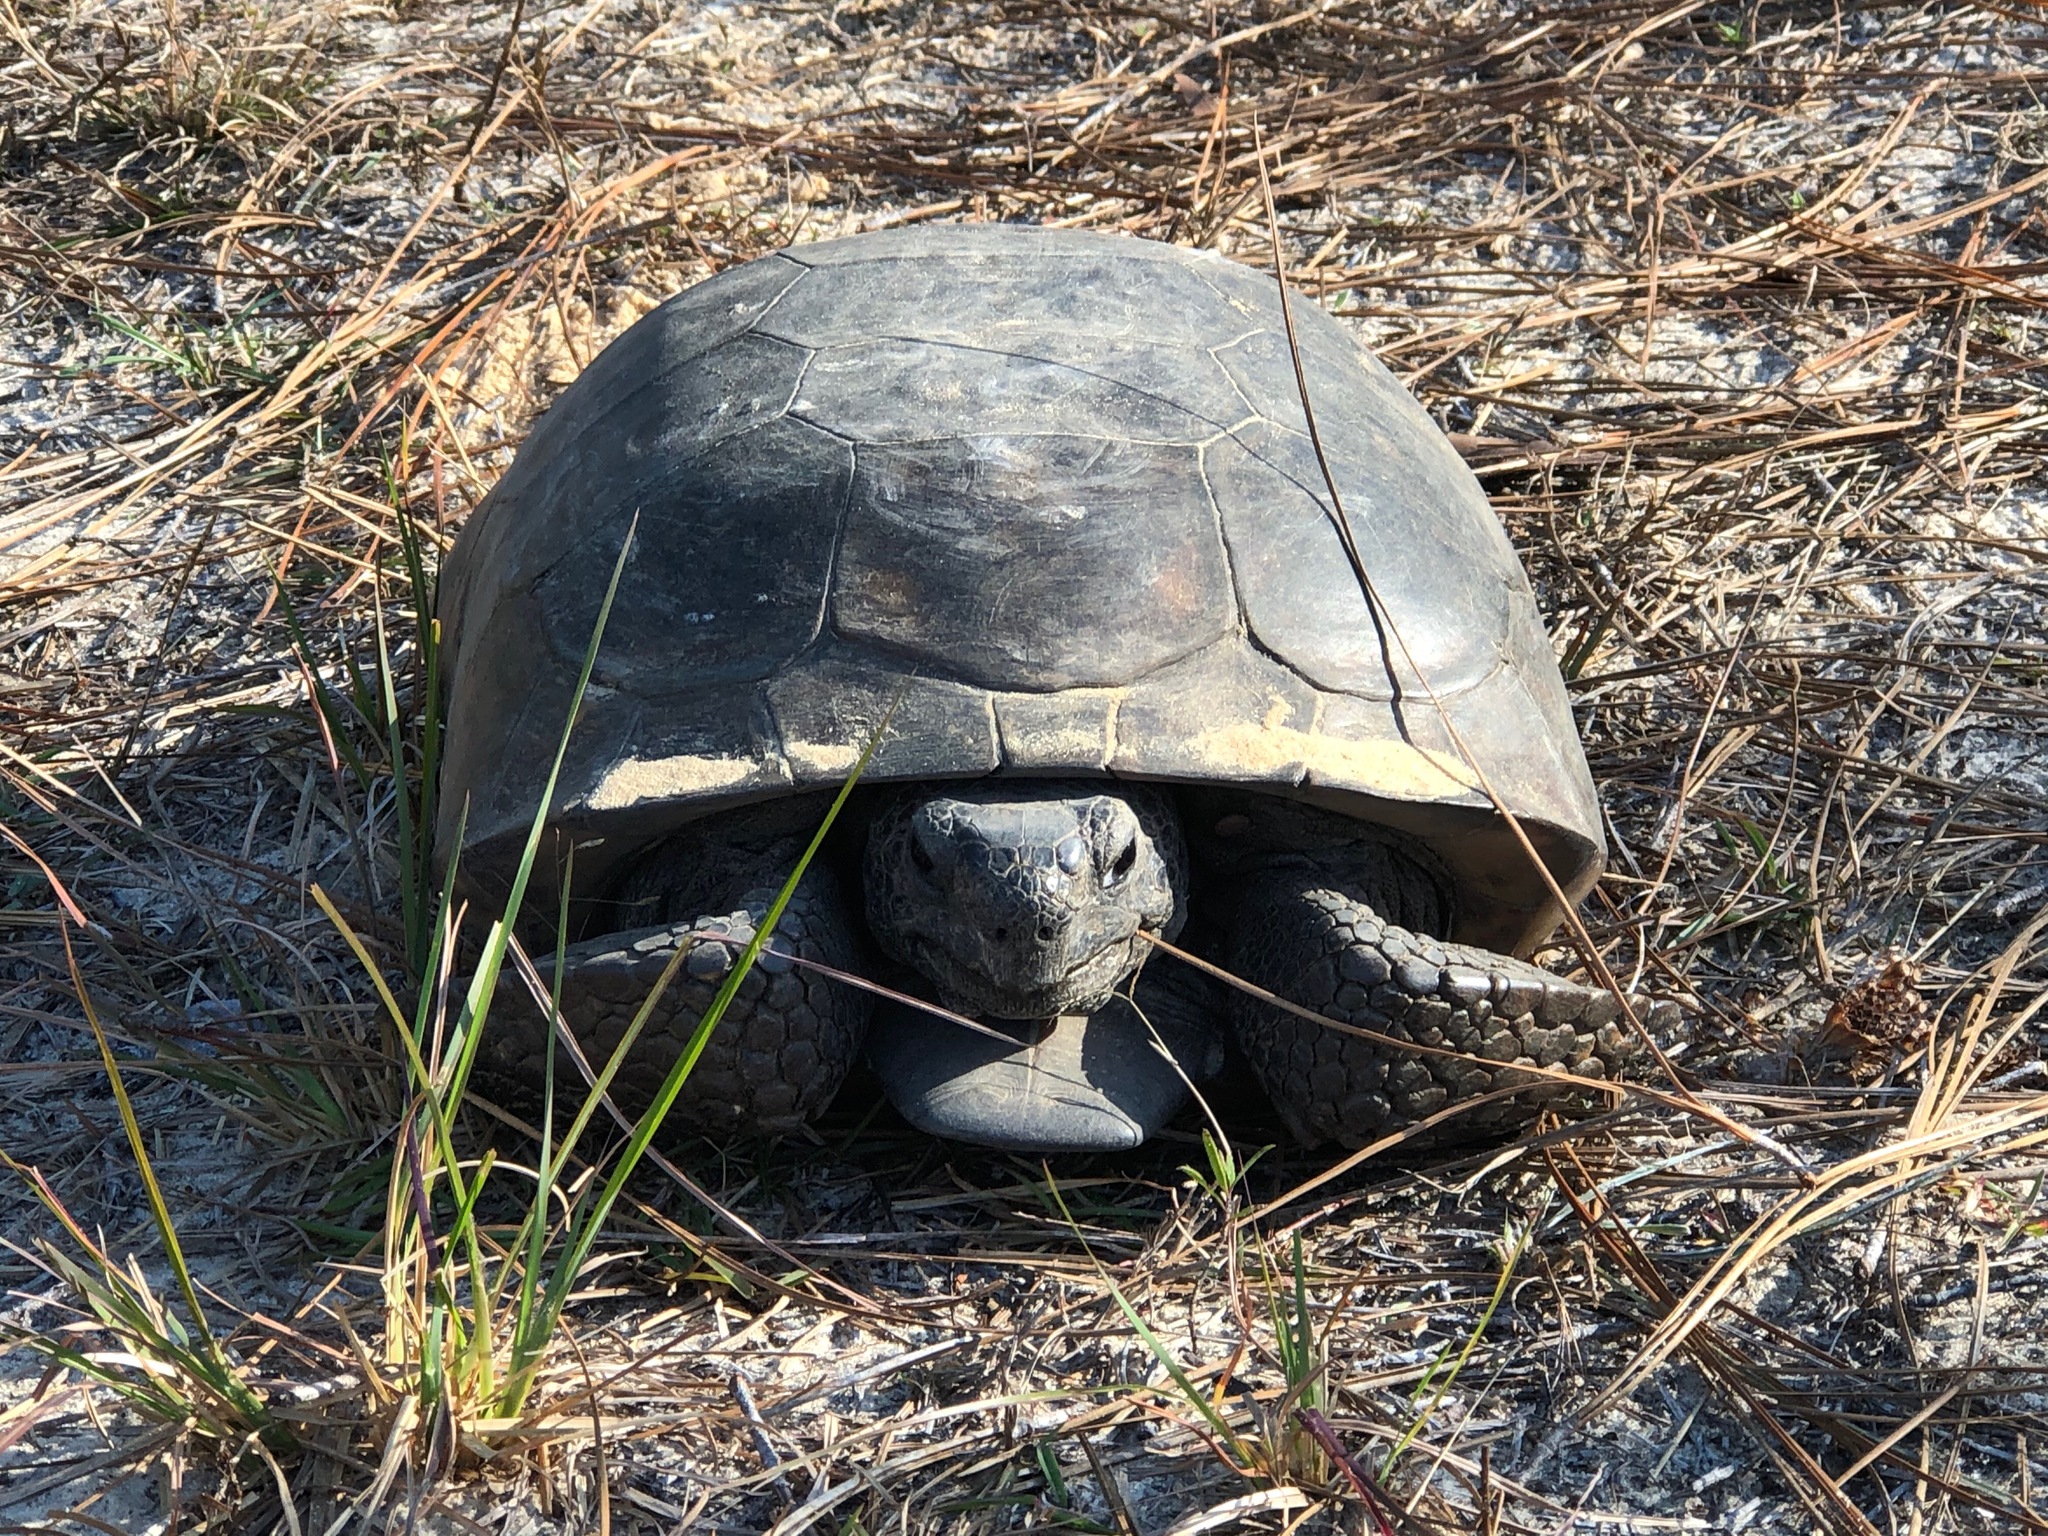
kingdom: Animalia
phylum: Chordata
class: Testudines
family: Testudinidae
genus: Gopherus
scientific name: Gopherus polyphemus
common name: Florida gopher tortoise
